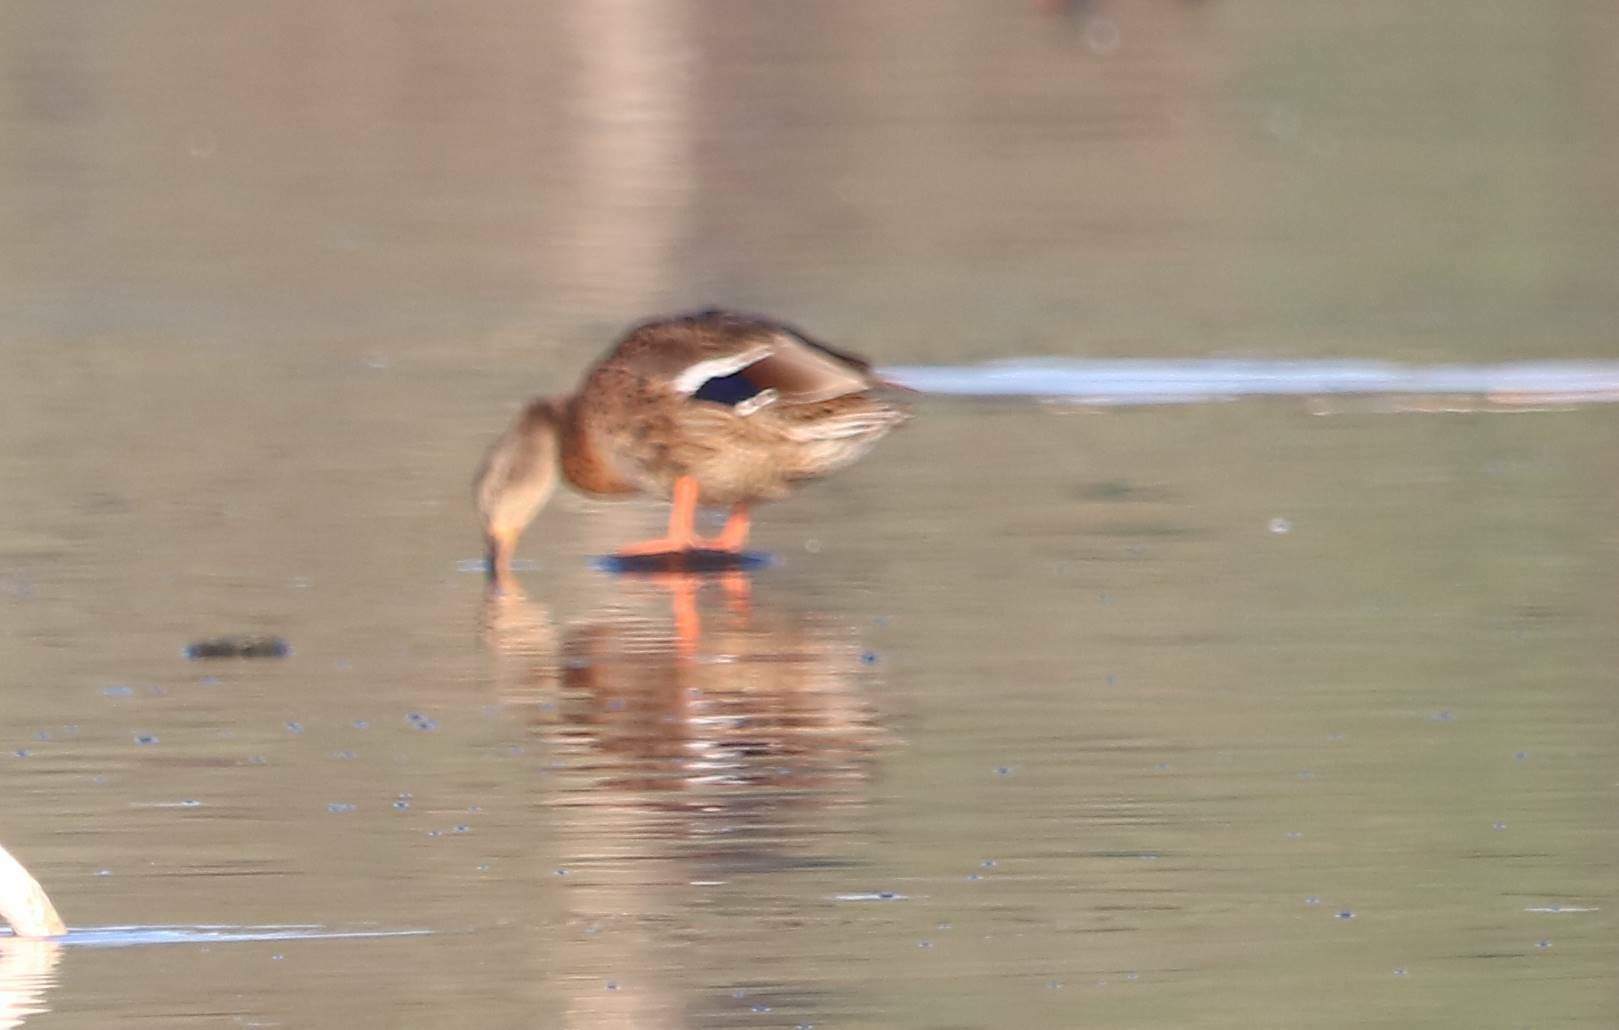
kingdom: Animalia
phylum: Chordata
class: Aves
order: Anseriformes
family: Anatidae
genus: Anas
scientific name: Anas platyrhynchos
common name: Mallard
